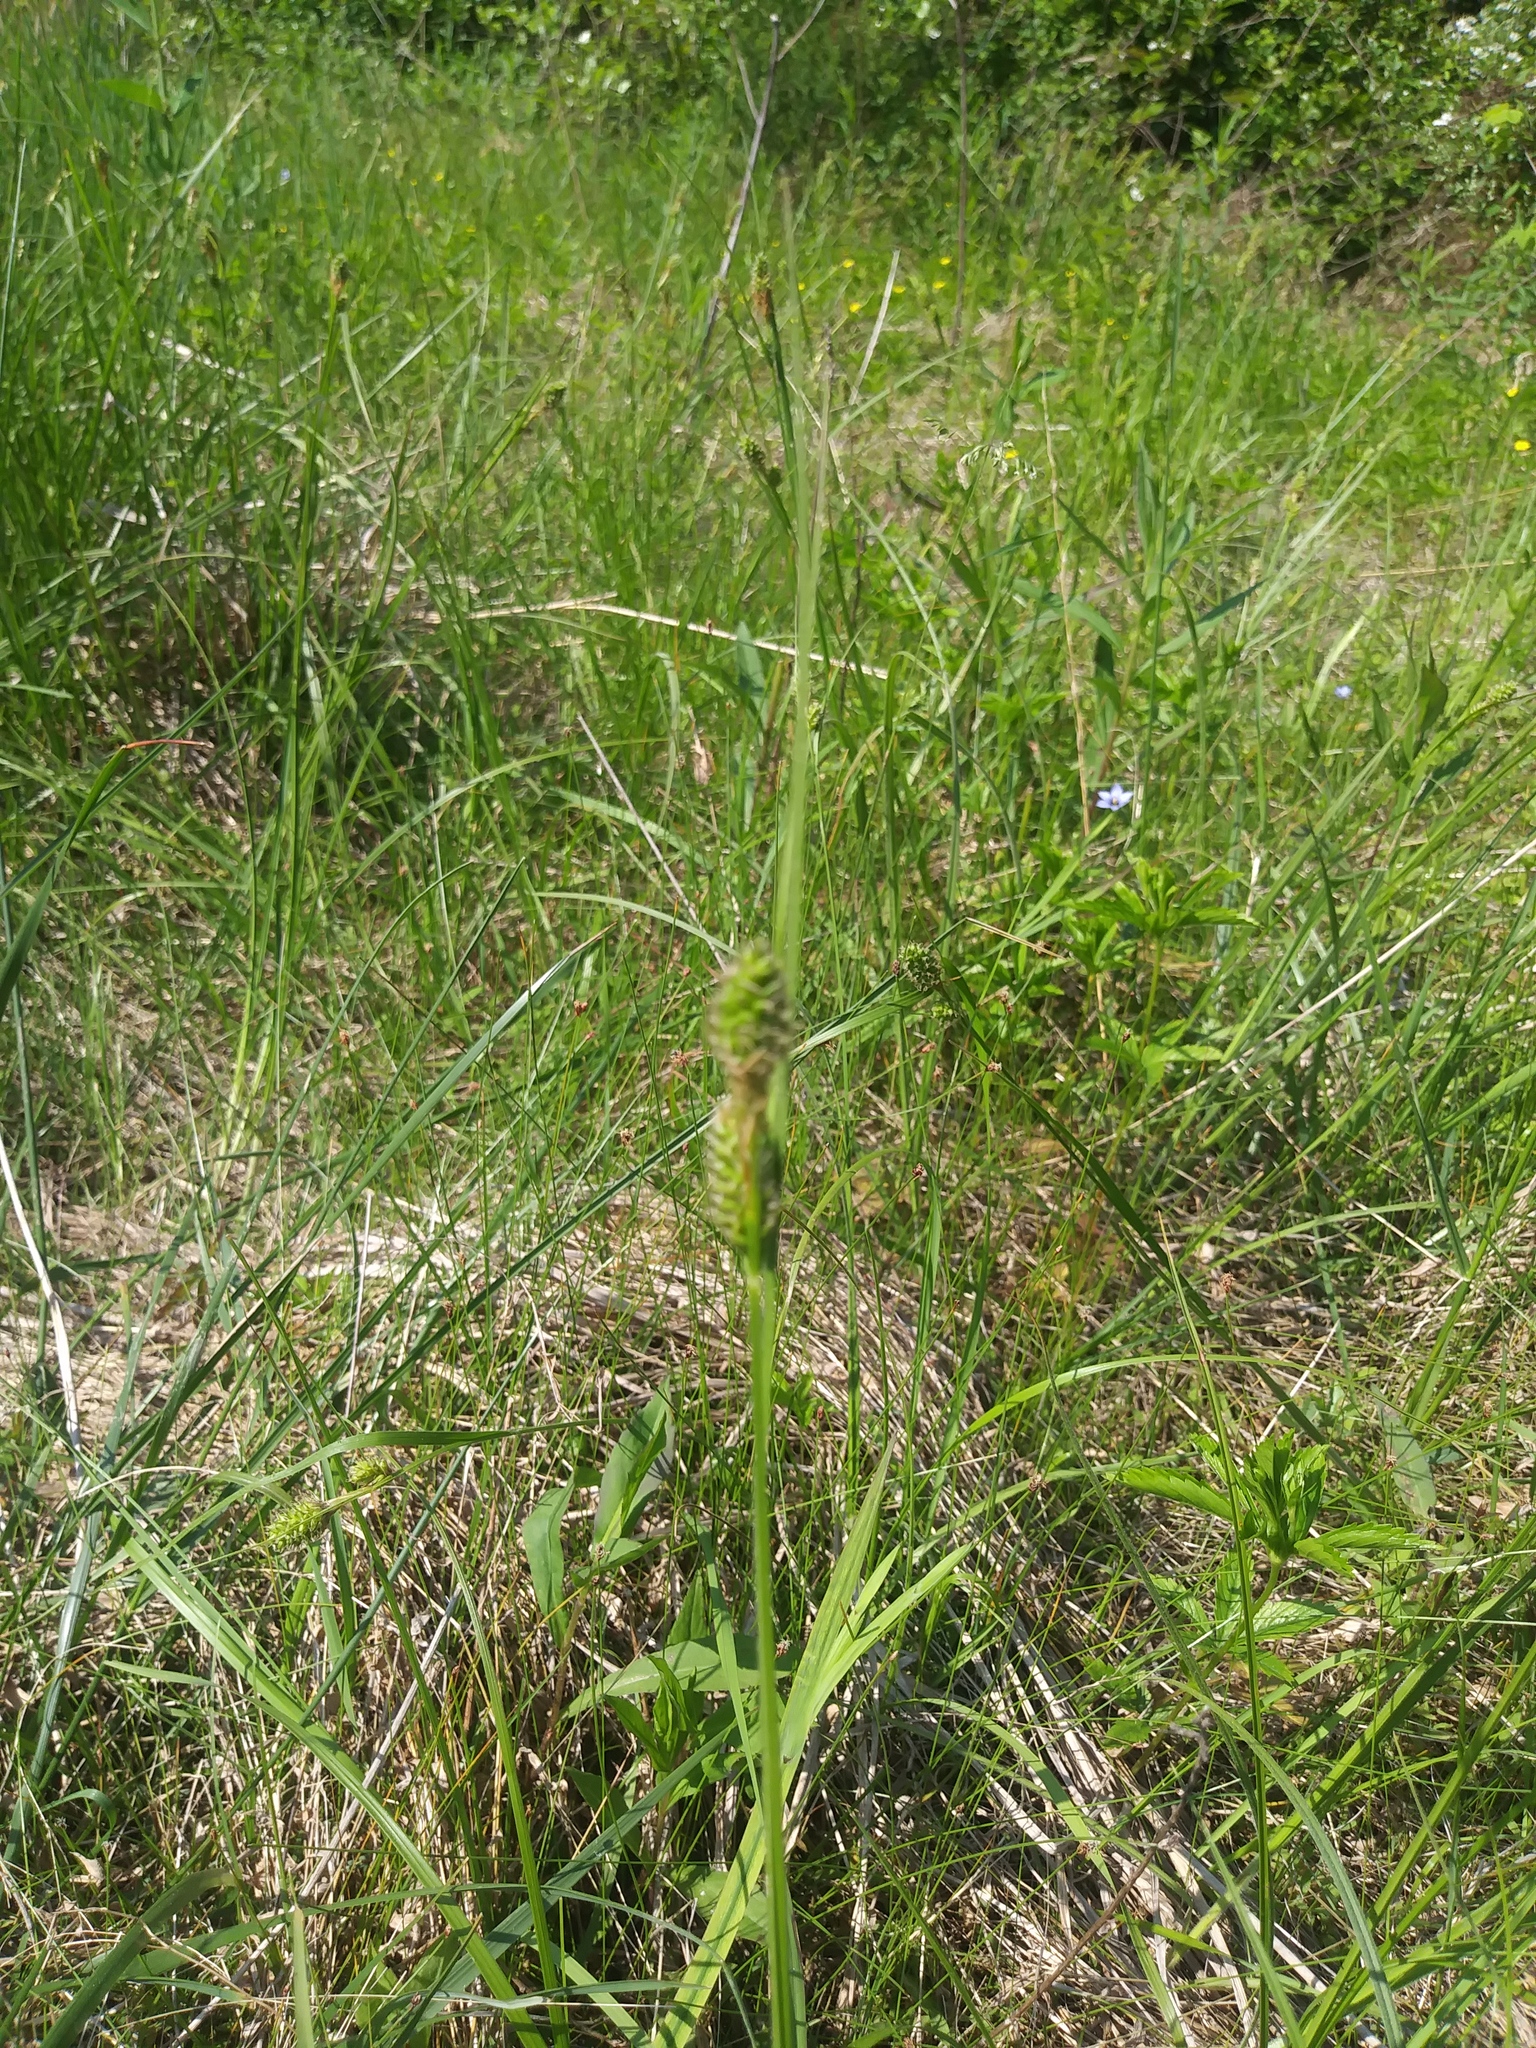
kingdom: Plantae
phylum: Tracheophyta
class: Liliopsida
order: Poales
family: Cyperaceae
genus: Carex
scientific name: Carex bushii
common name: Bush's sedge
